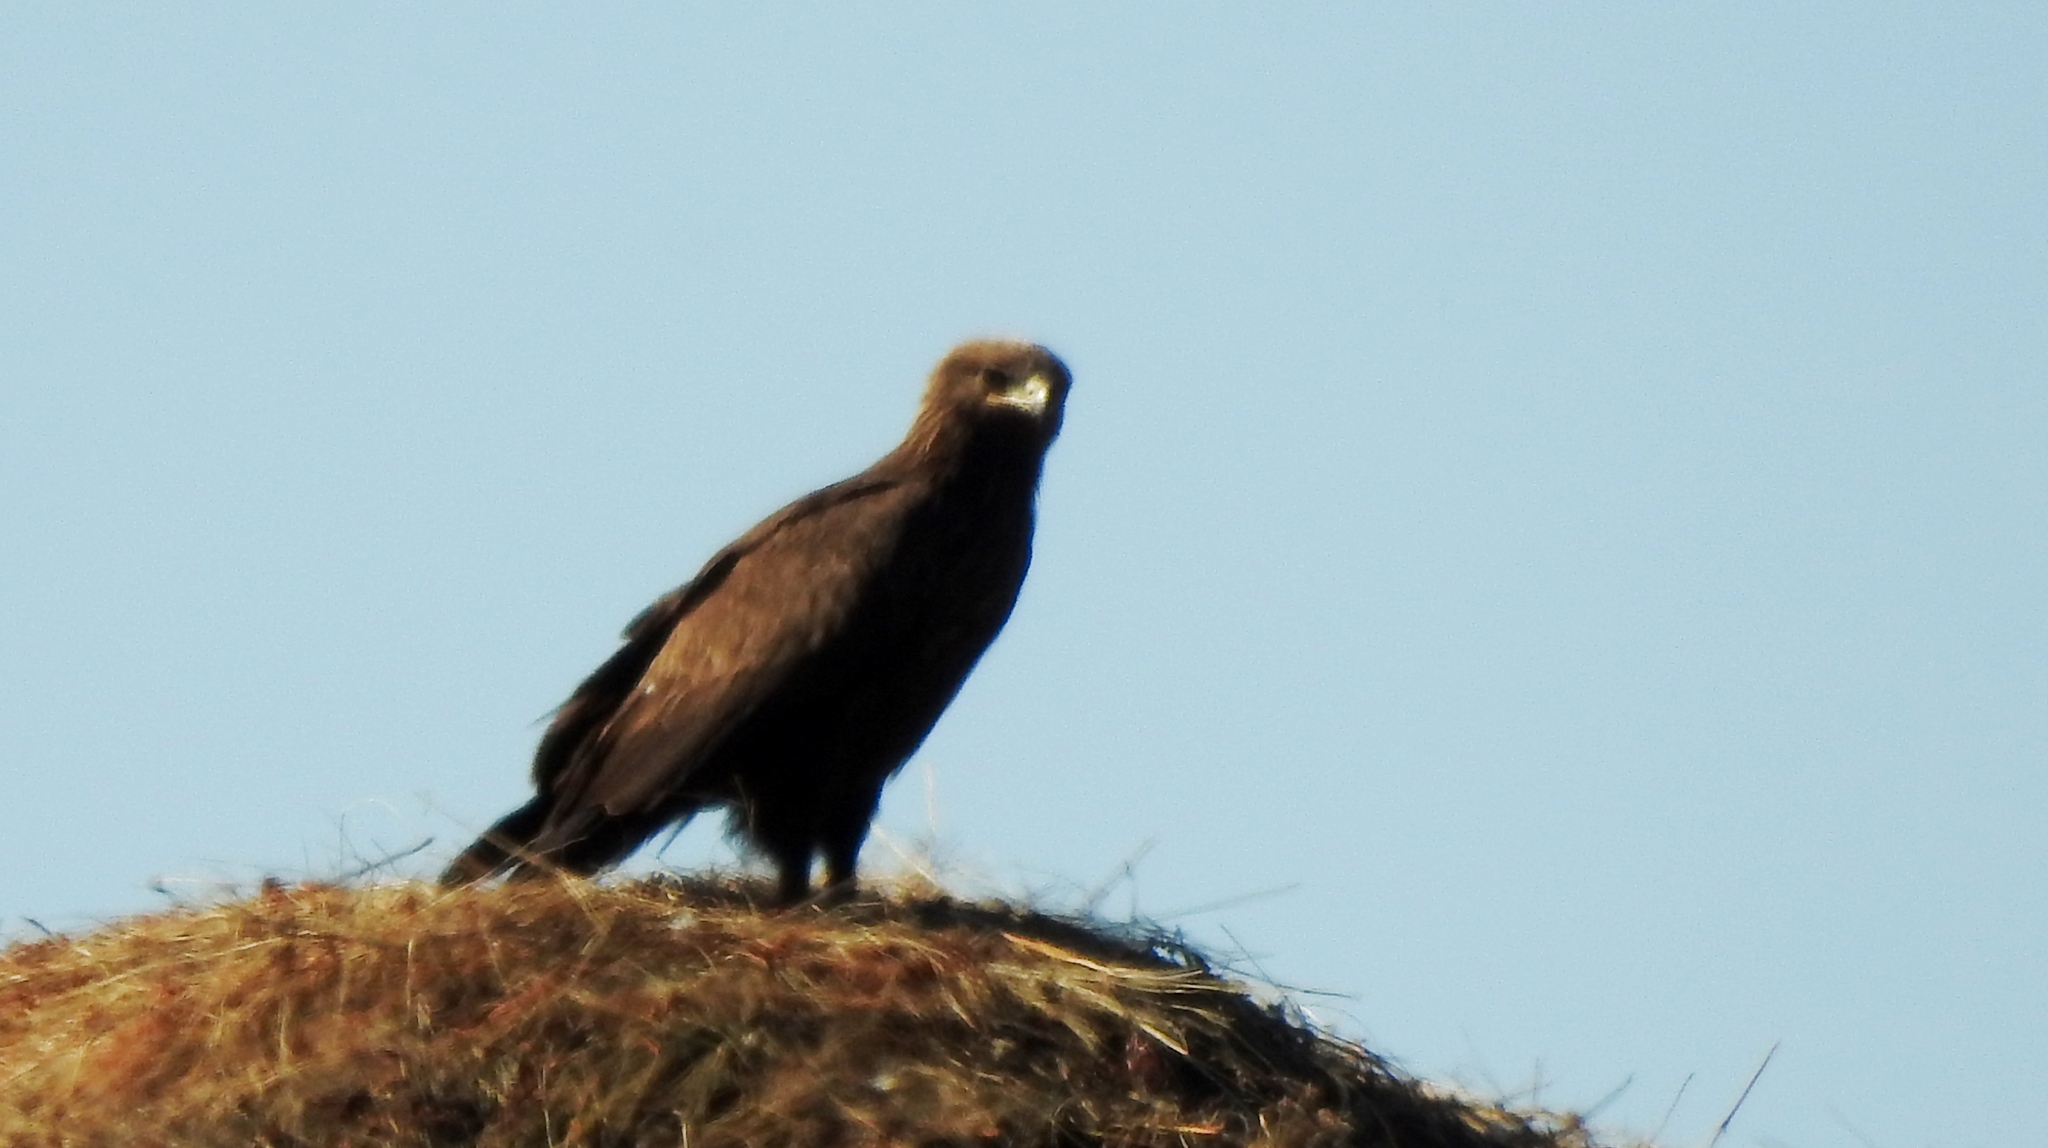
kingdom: Animalia
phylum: Chordata
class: Aves
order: Accipitriformes
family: Accipitridae
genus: Aquila
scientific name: Aquila clanga
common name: Greater spotted eagle
